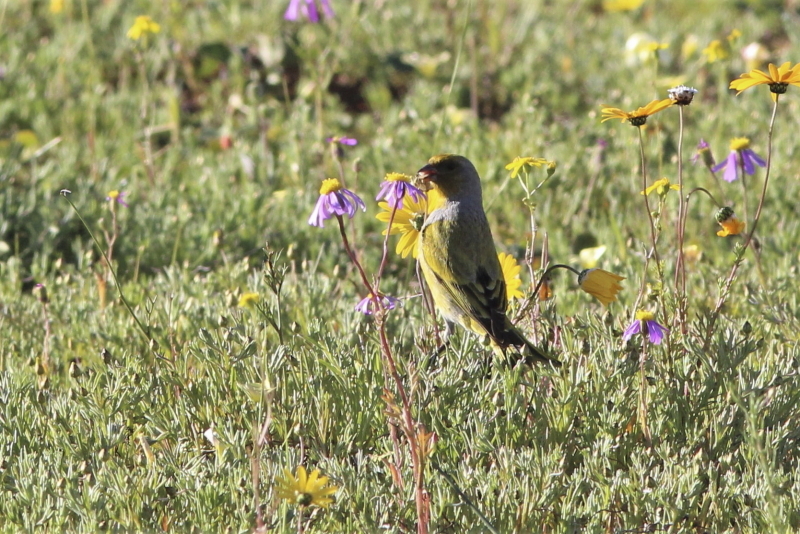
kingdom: Animalia
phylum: Chordata
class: Aves
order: Passeriformes
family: Fringillidae
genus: Serinus
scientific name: Serinus canicollis
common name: Cape canary
